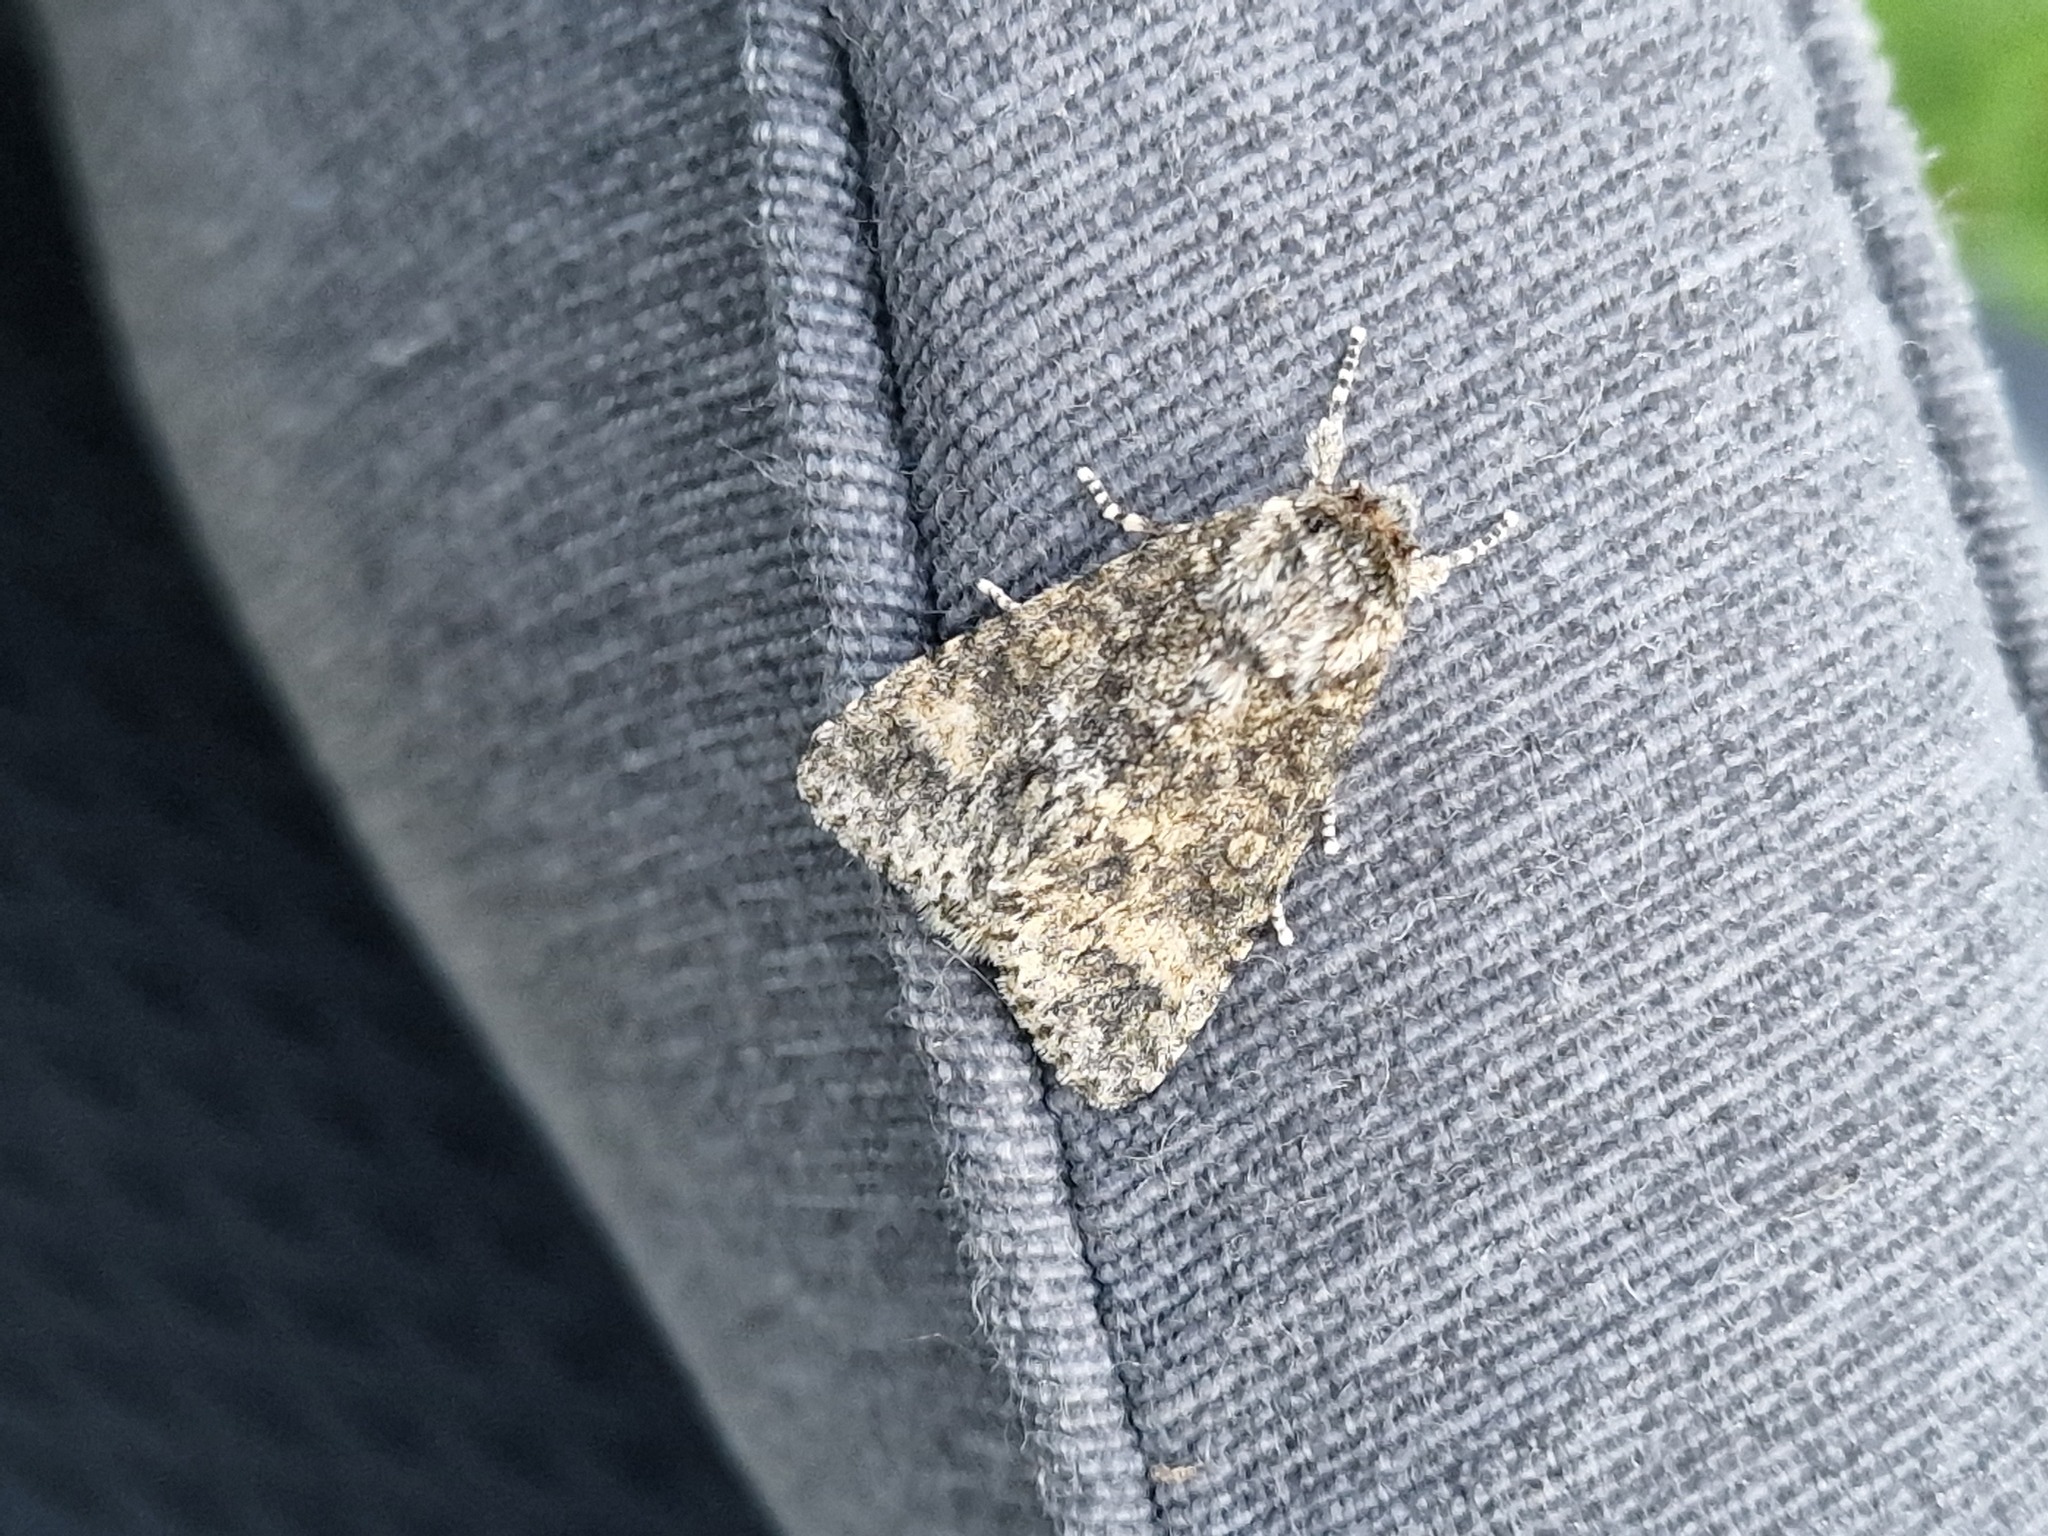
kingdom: Animalia
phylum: Arthropoda
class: Insecta
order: Lepidoptera
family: Noctuidae
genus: Acronicta
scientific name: Acronicta megacephala
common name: Poplar grey
